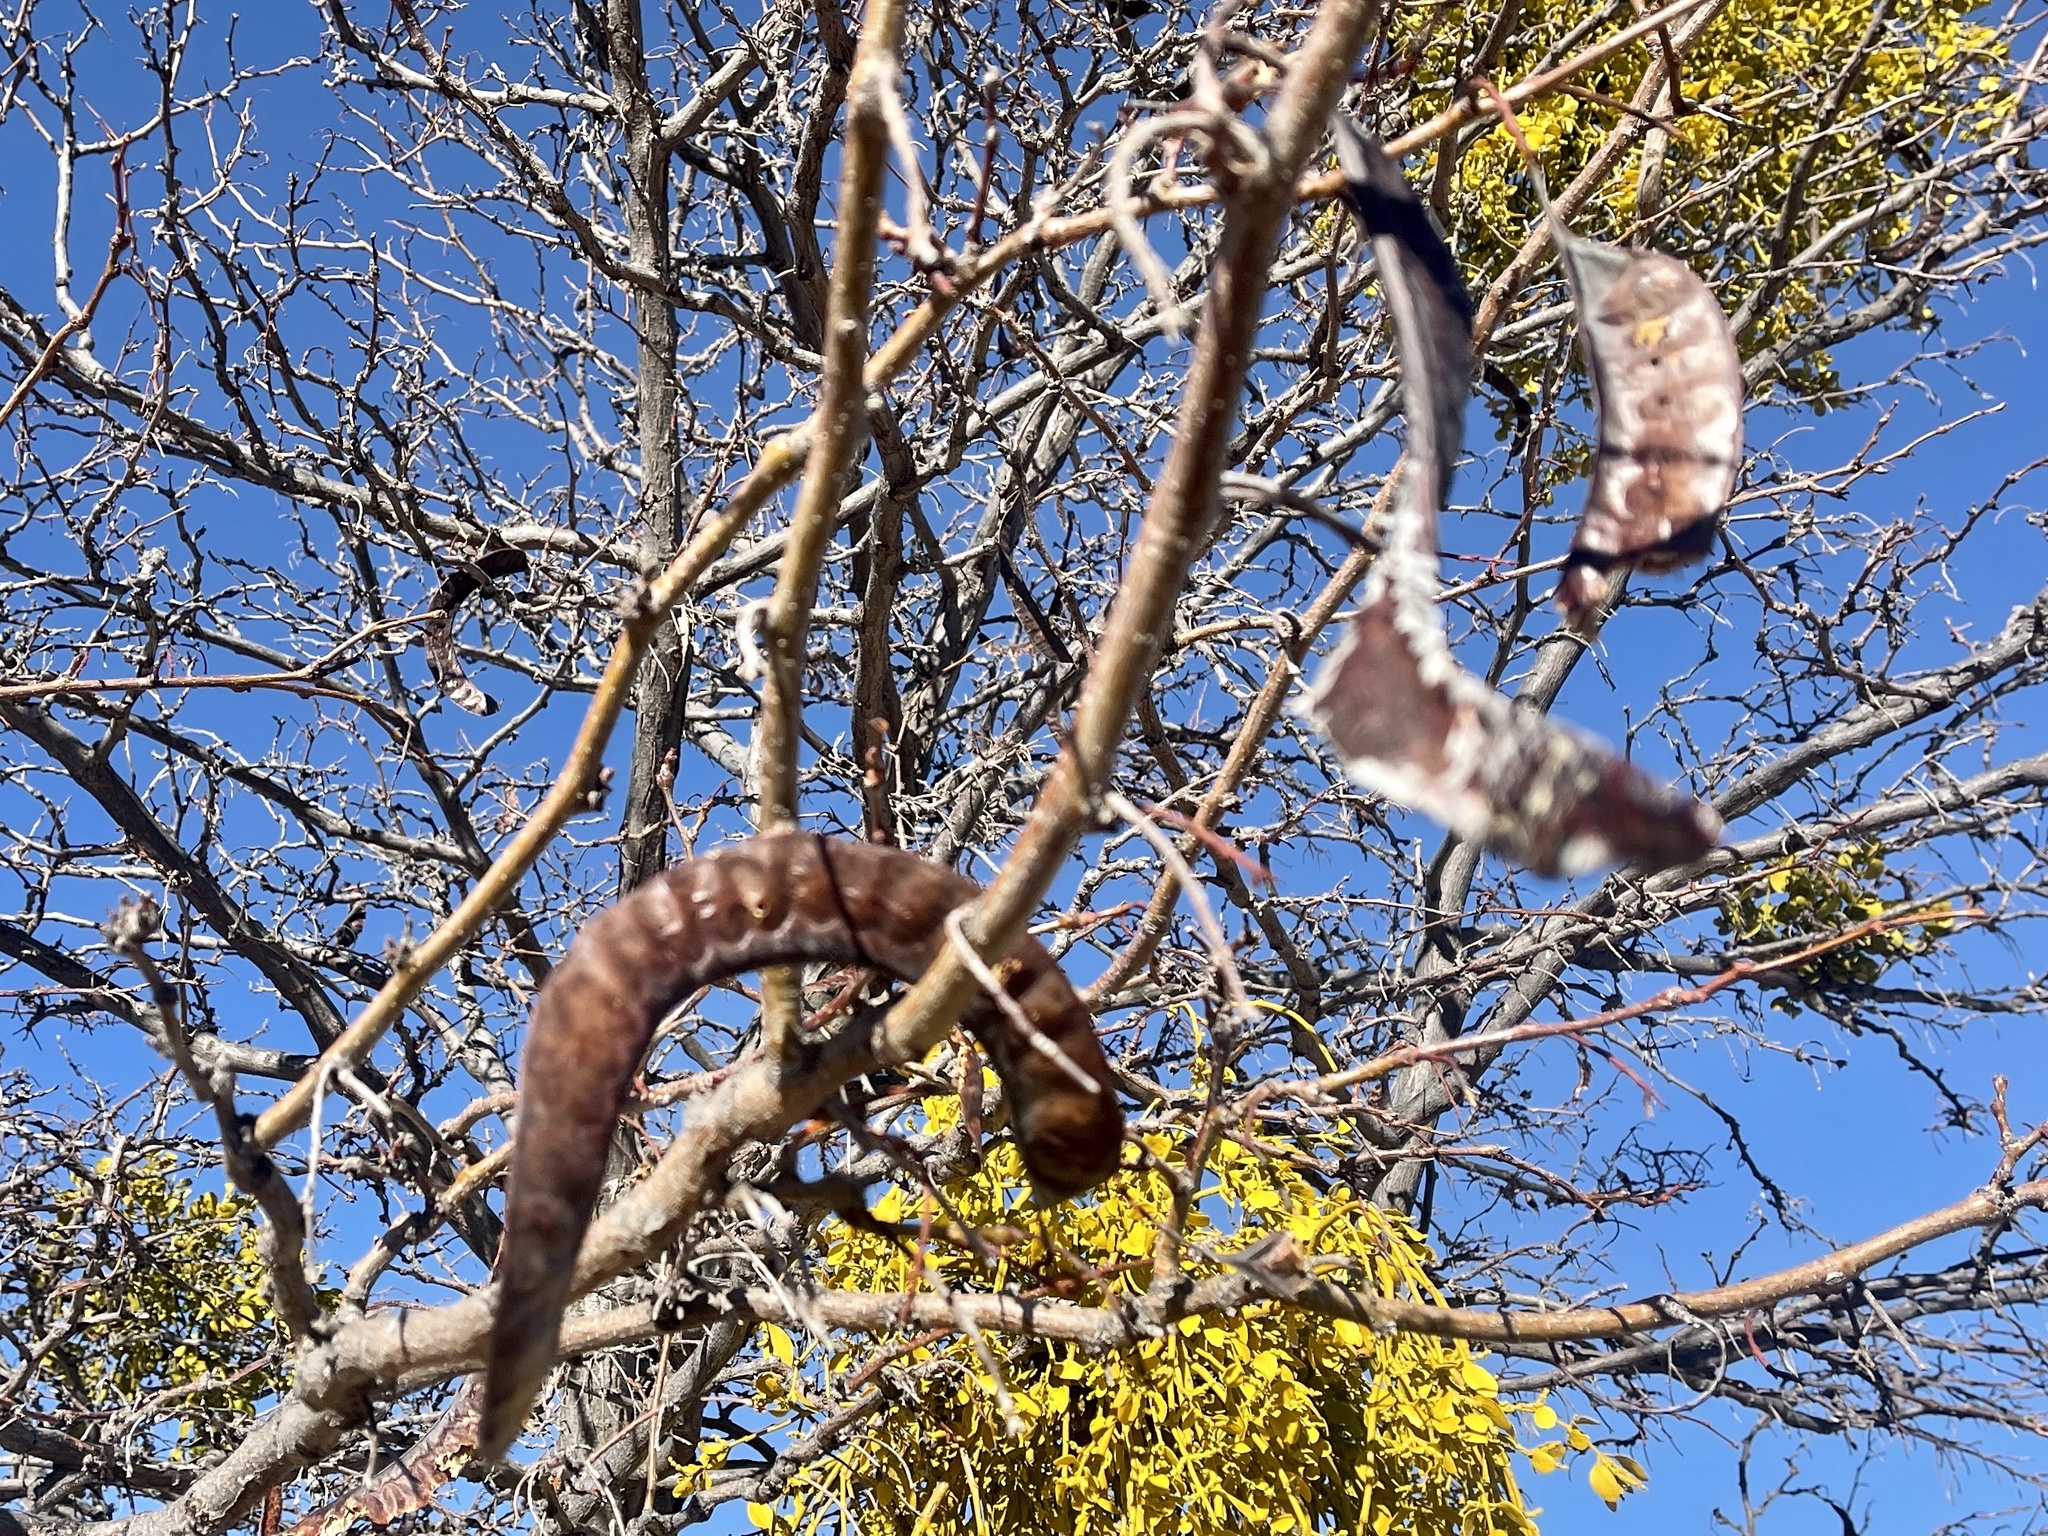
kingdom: Plantae
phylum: Tracheophyta
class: Magnoliopsida
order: Fabales
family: Fabaceae
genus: Gleditsia
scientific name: Gleditsia triacanthos
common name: Common honeylocust
